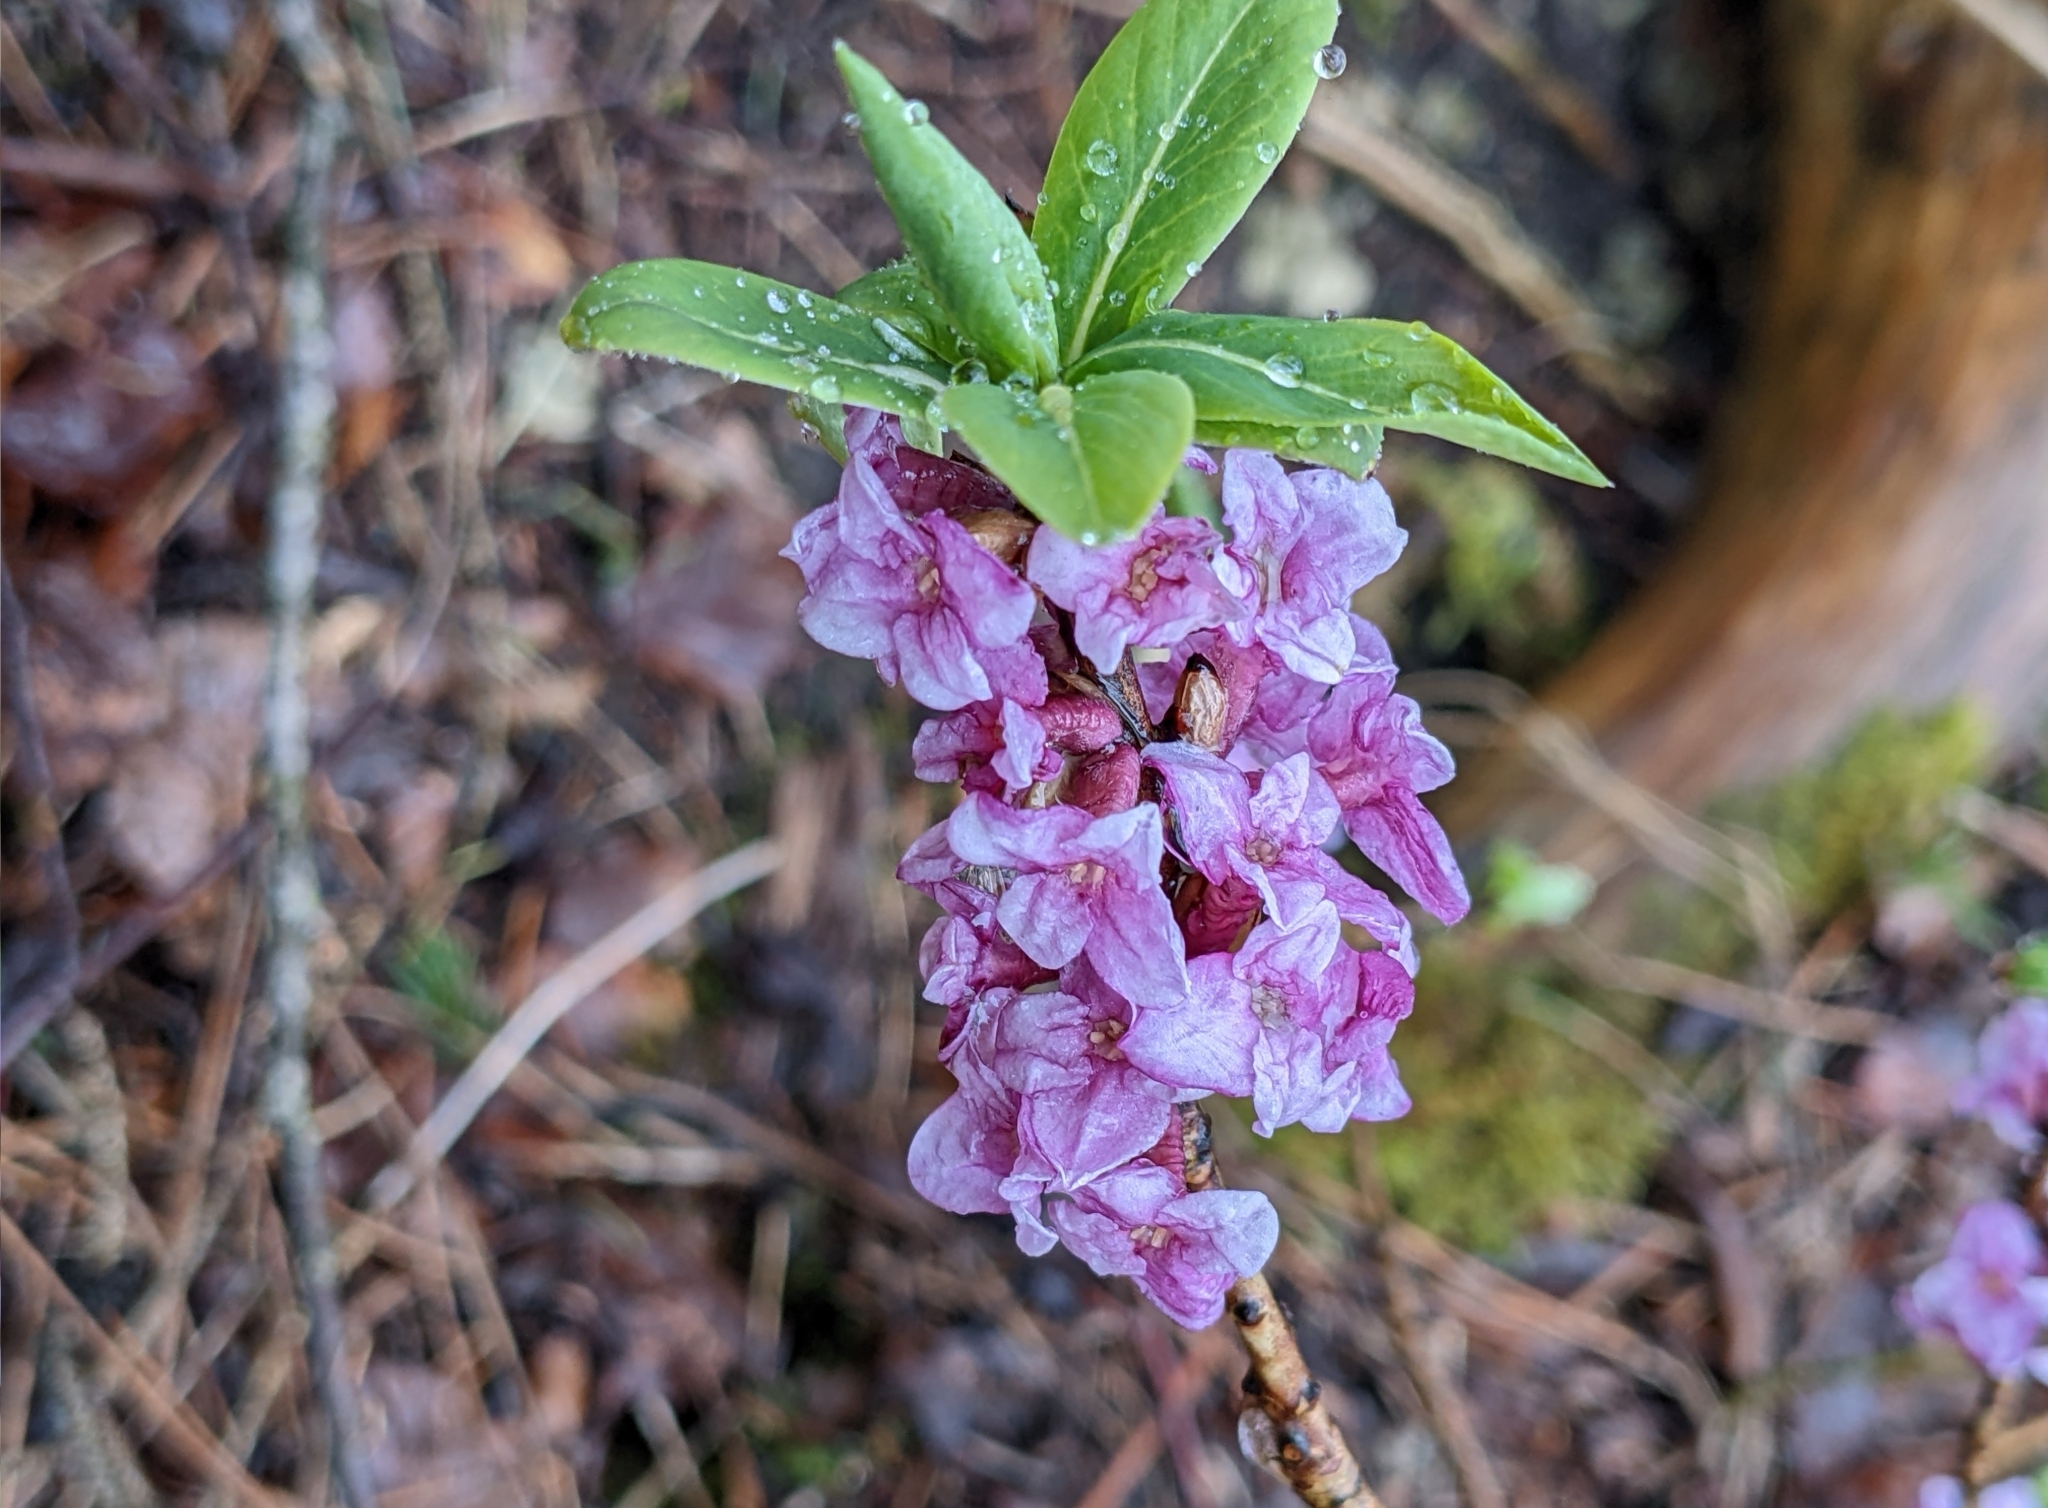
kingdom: Plantae
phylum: Tracheophyta
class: Magnoliopsida
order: Malvales
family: Thymelaeaceae
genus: Daphne
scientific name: Daphne mezereum
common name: Mezereon
